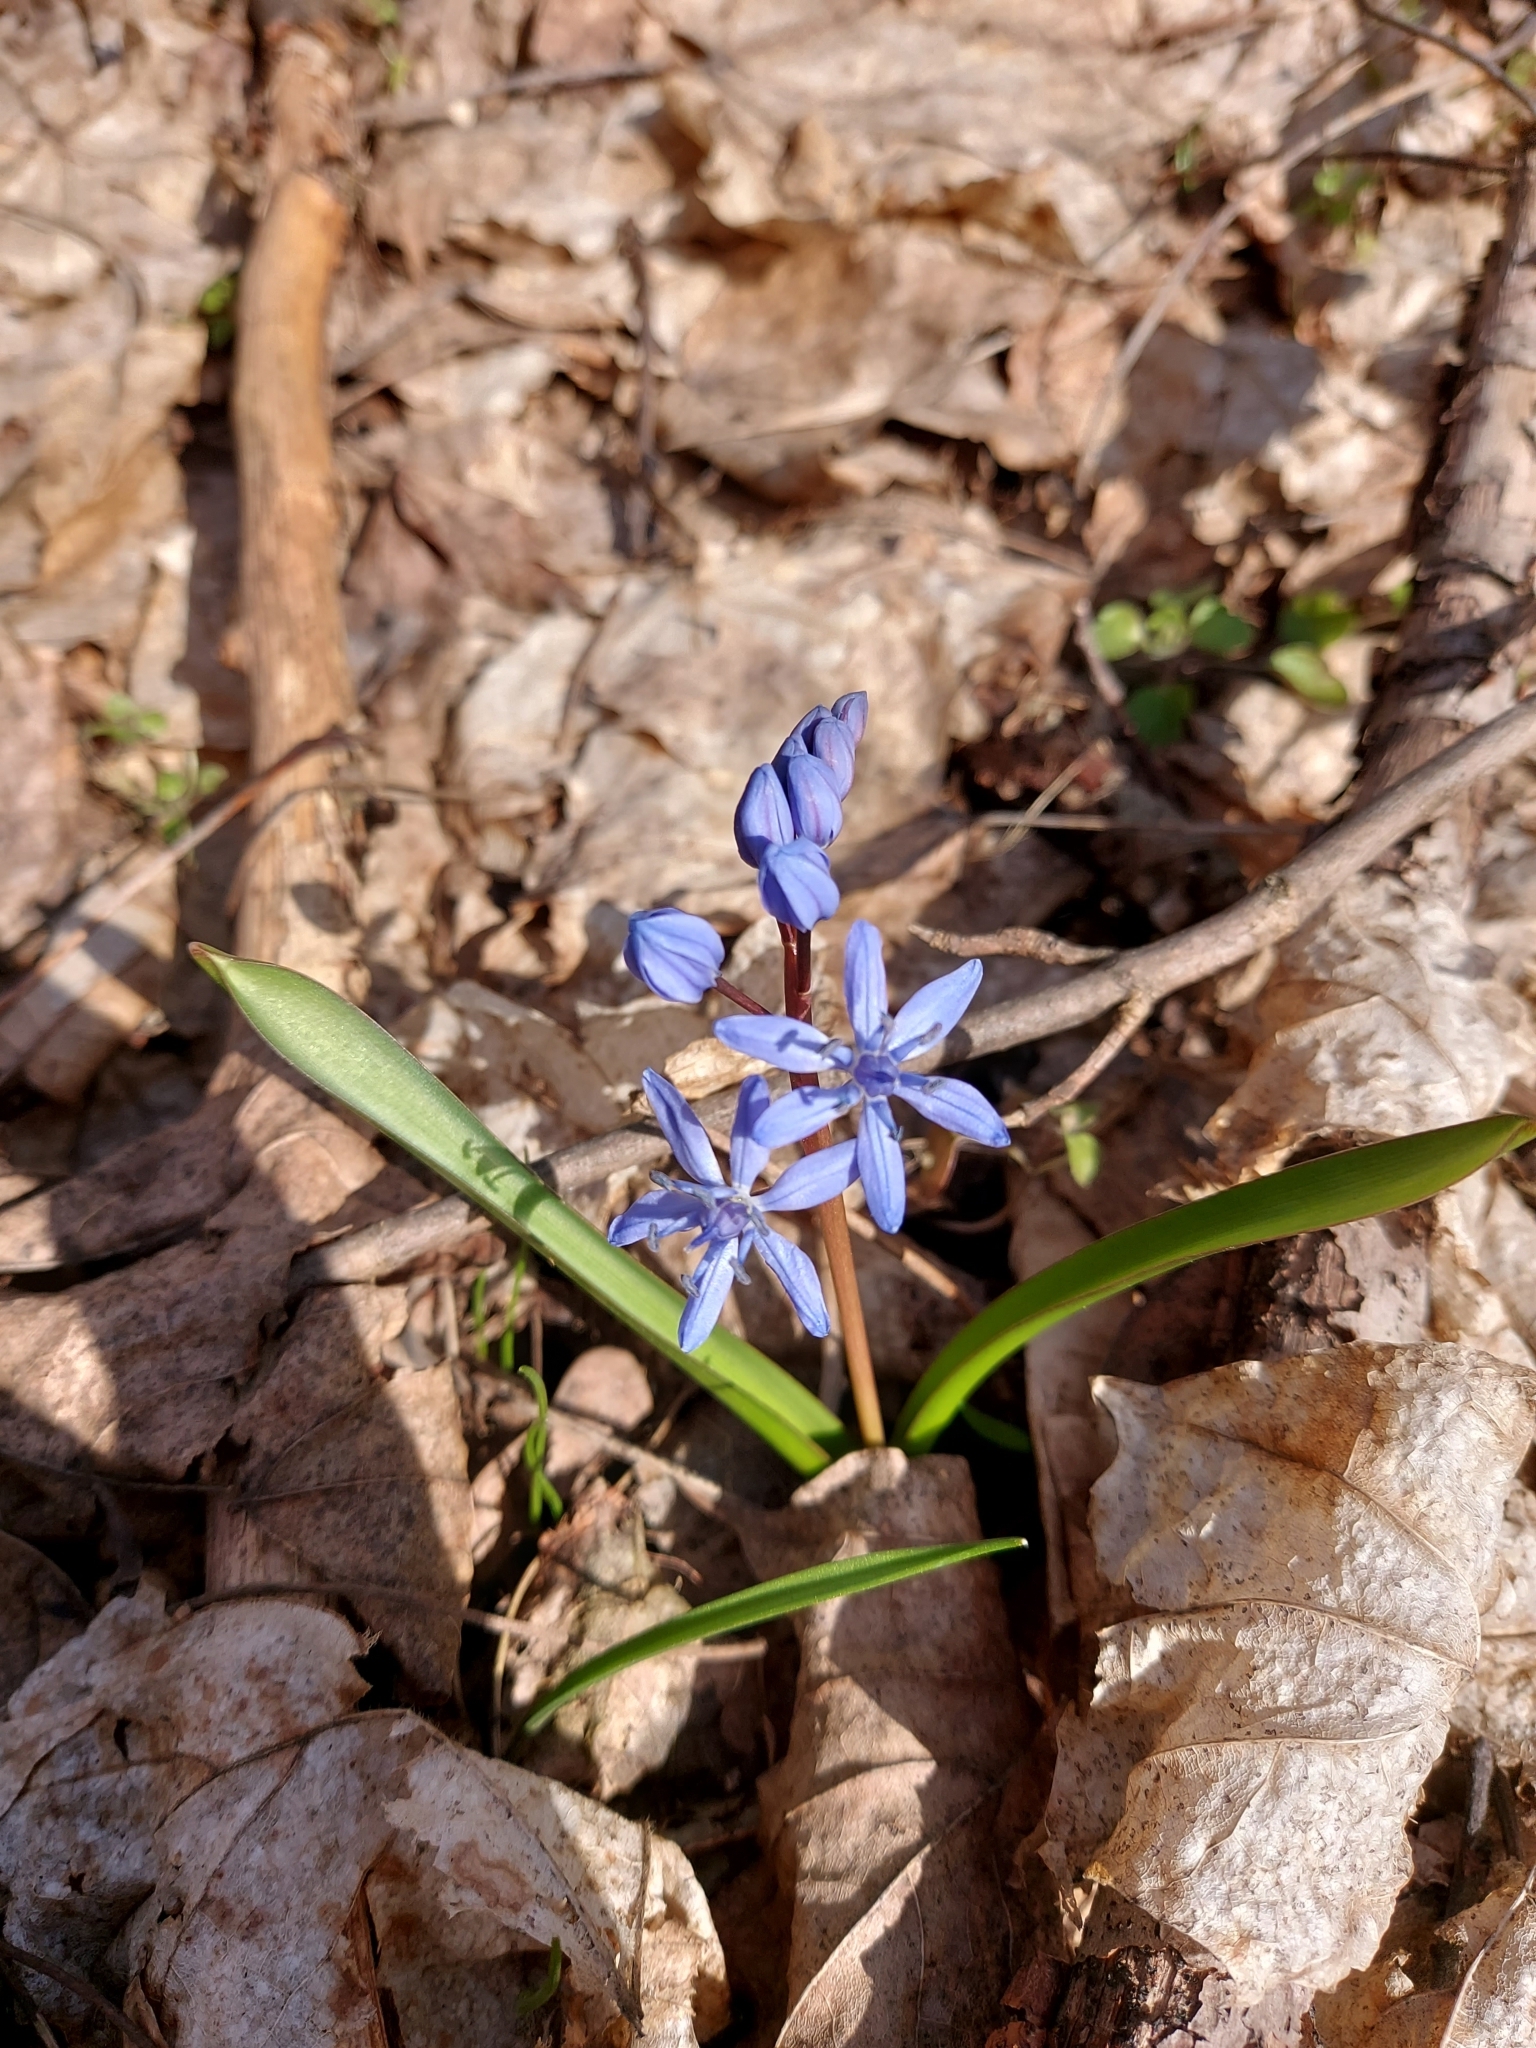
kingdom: Plantae
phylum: Tracheophyta
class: Liliopsida
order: Asparagales
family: Asparagaceae
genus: Scilla
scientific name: Scilla bifolia
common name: Alpine squill
